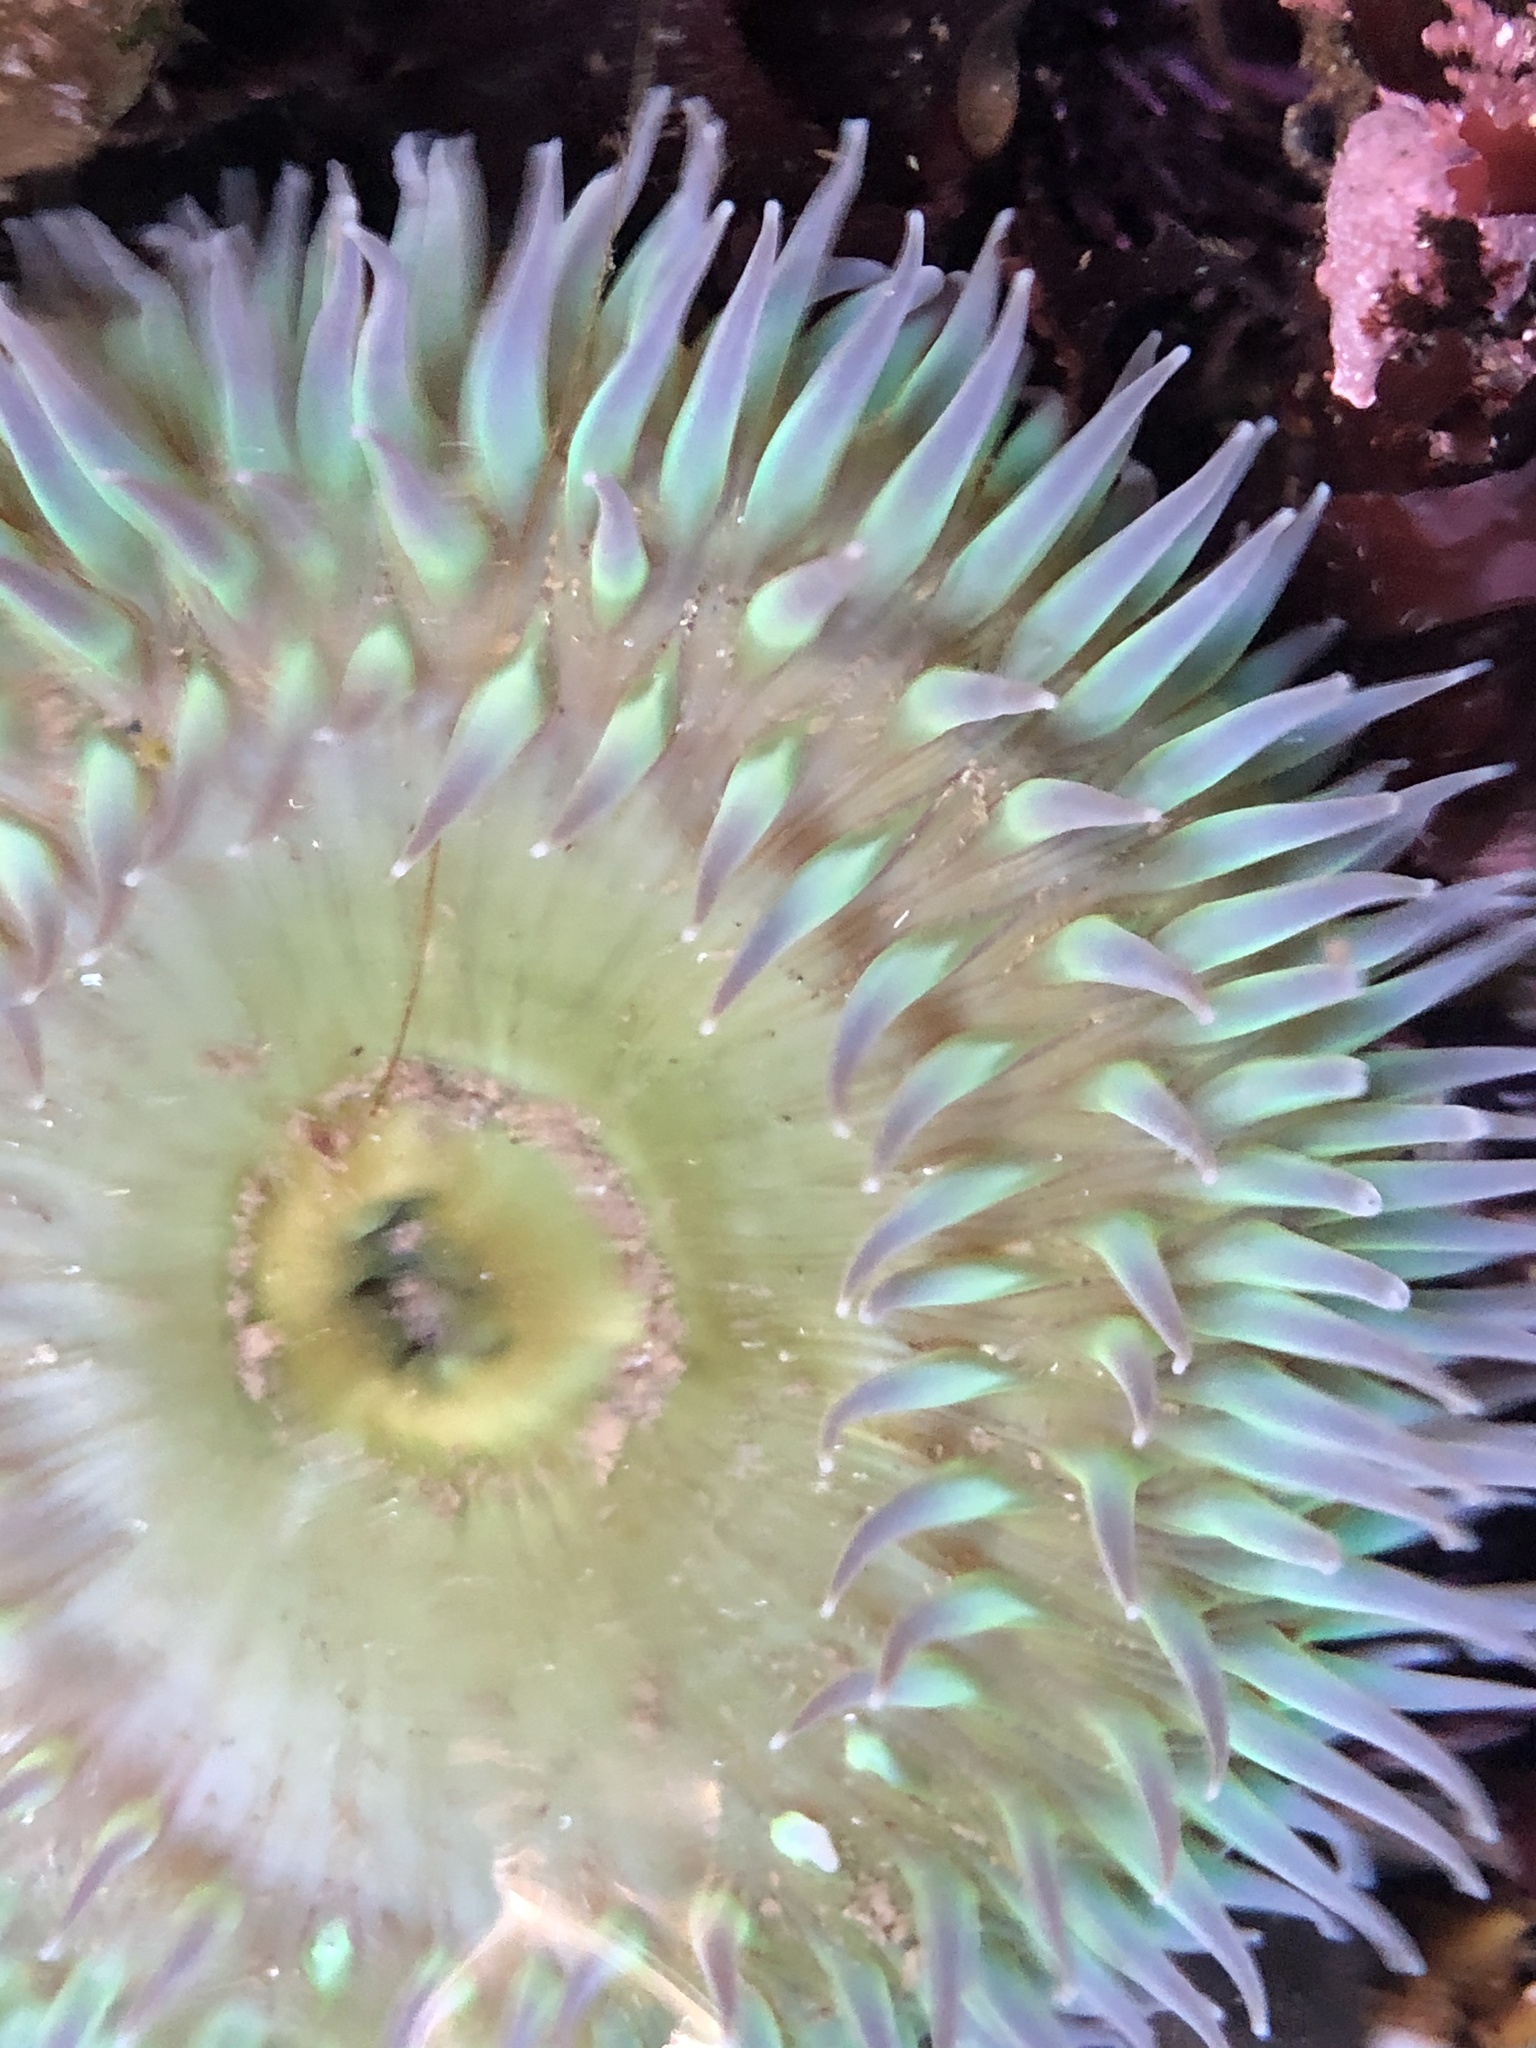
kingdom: Animalia
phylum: Cnidaria
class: Anthozoa
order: Actiniaria
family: Actiniidae
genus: Anthopleura
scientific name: Anthopleura xanthogrammica
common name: Giant green anemone
